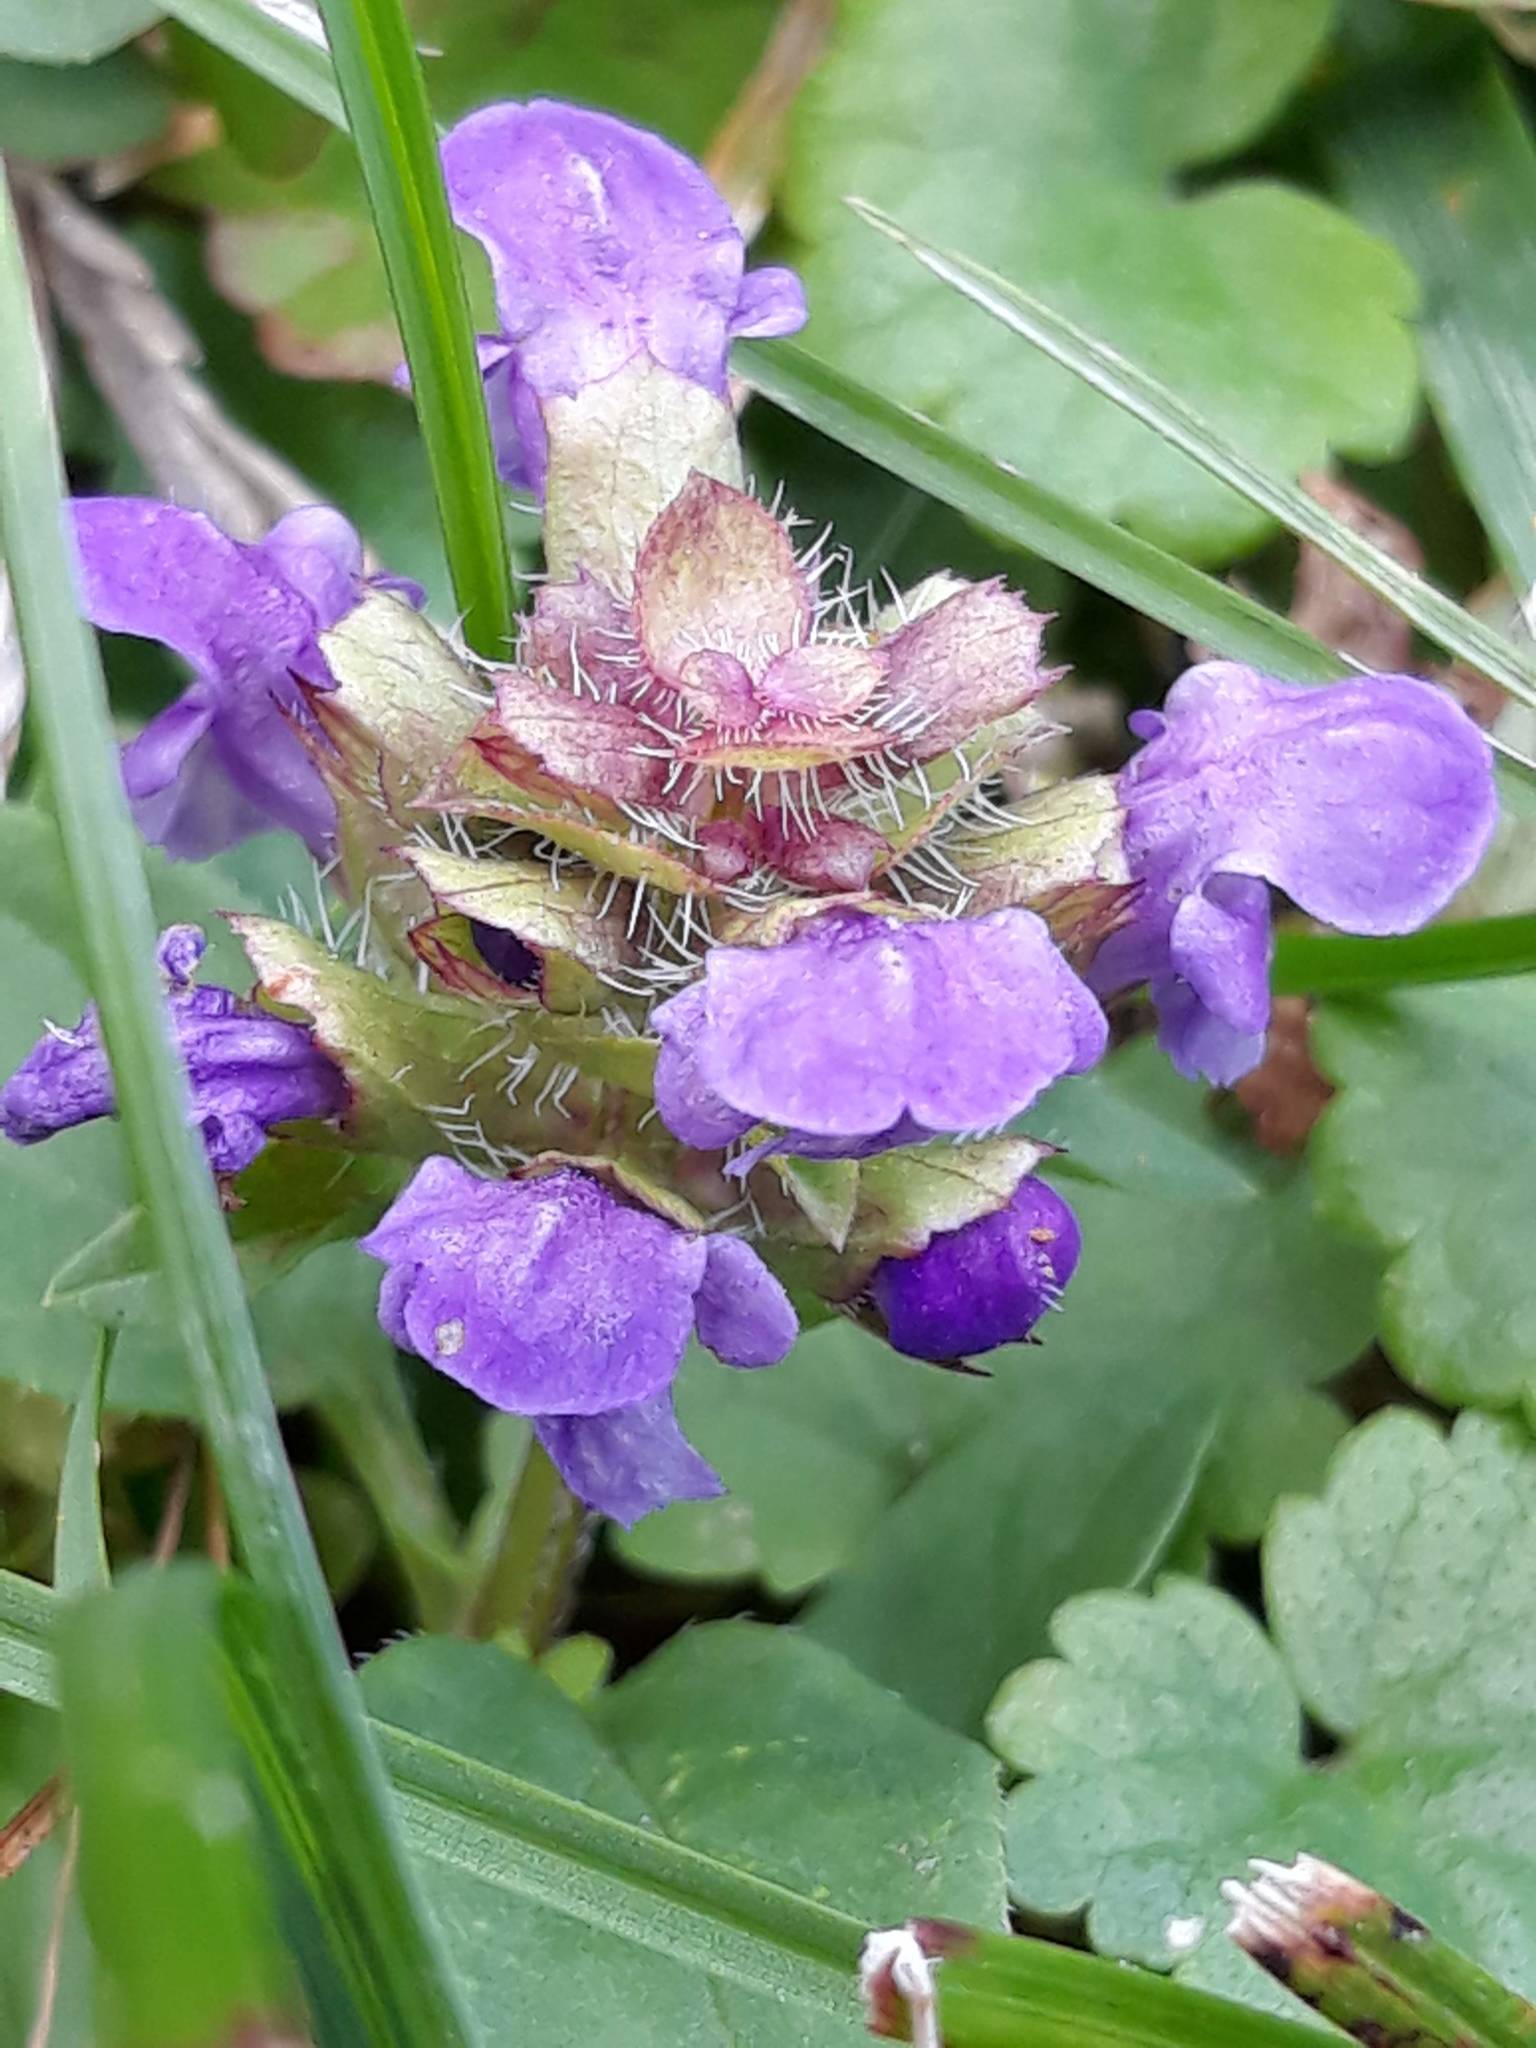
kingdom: Plantae
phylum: Tracheophyta
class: Magnoliopsida
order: Lamiales
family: Lamiaceae
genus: Prunella
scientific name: Prunella vulgaris
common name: Heal-all
